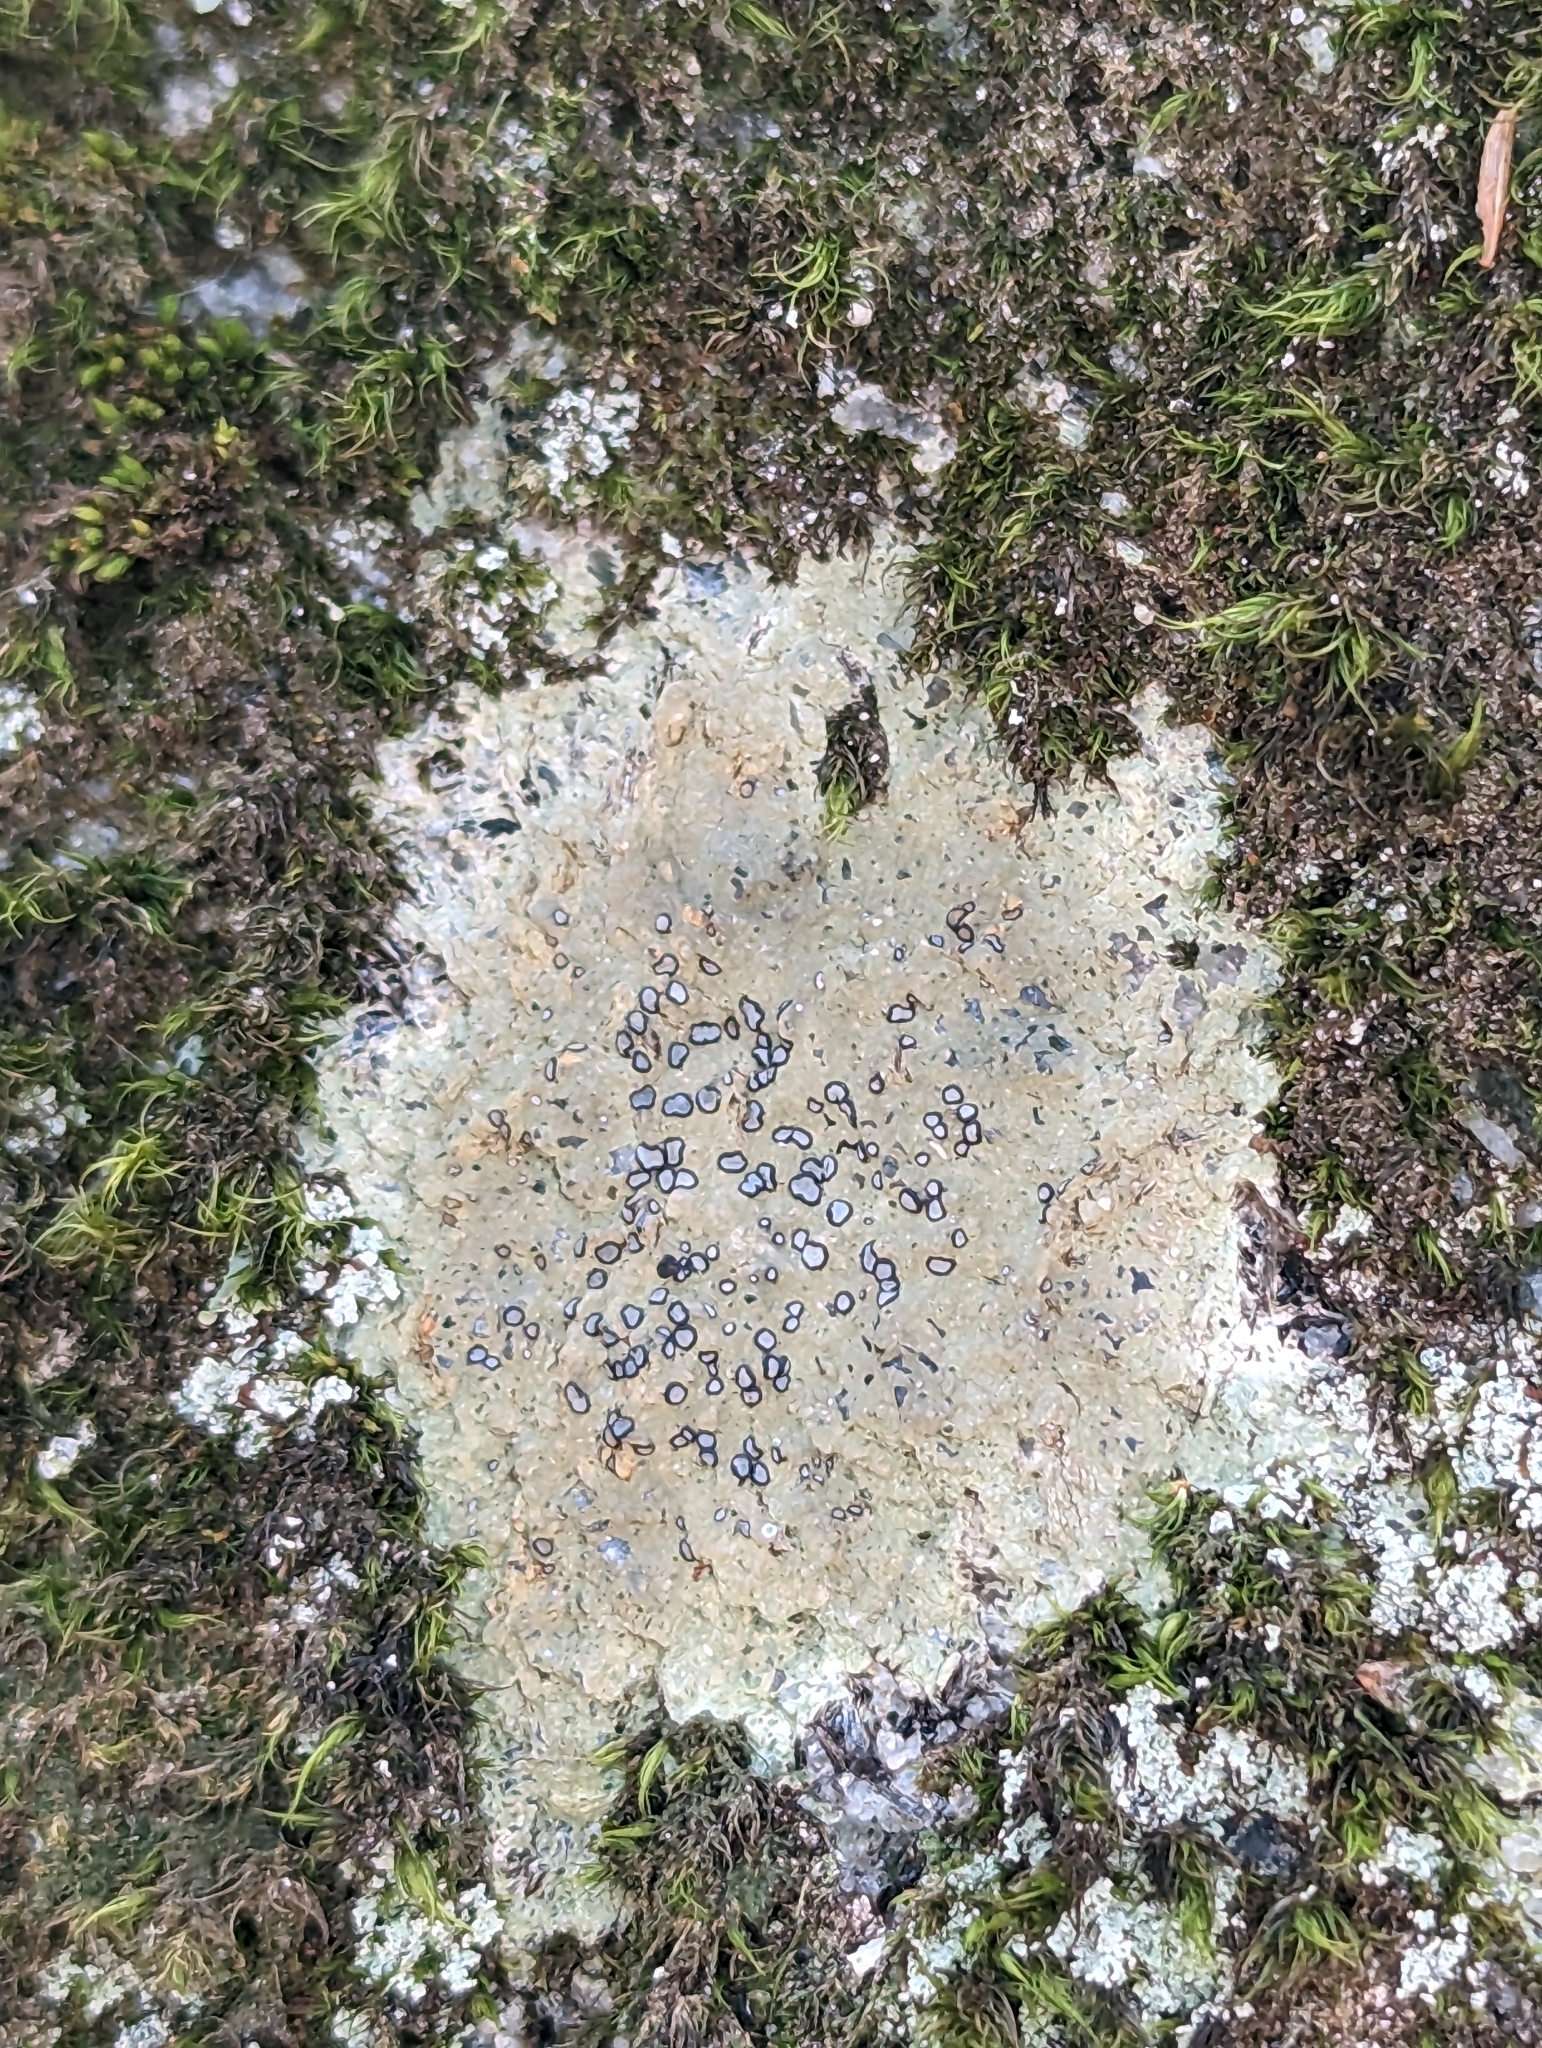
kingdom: Fungi
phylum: Ascomycota
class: Lecanoromycetes
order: Lecideales
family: Lecideaceae
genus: Porpidia
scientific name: Porpidia albocaerulescens
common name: Smokey-eyed boulder lichen
